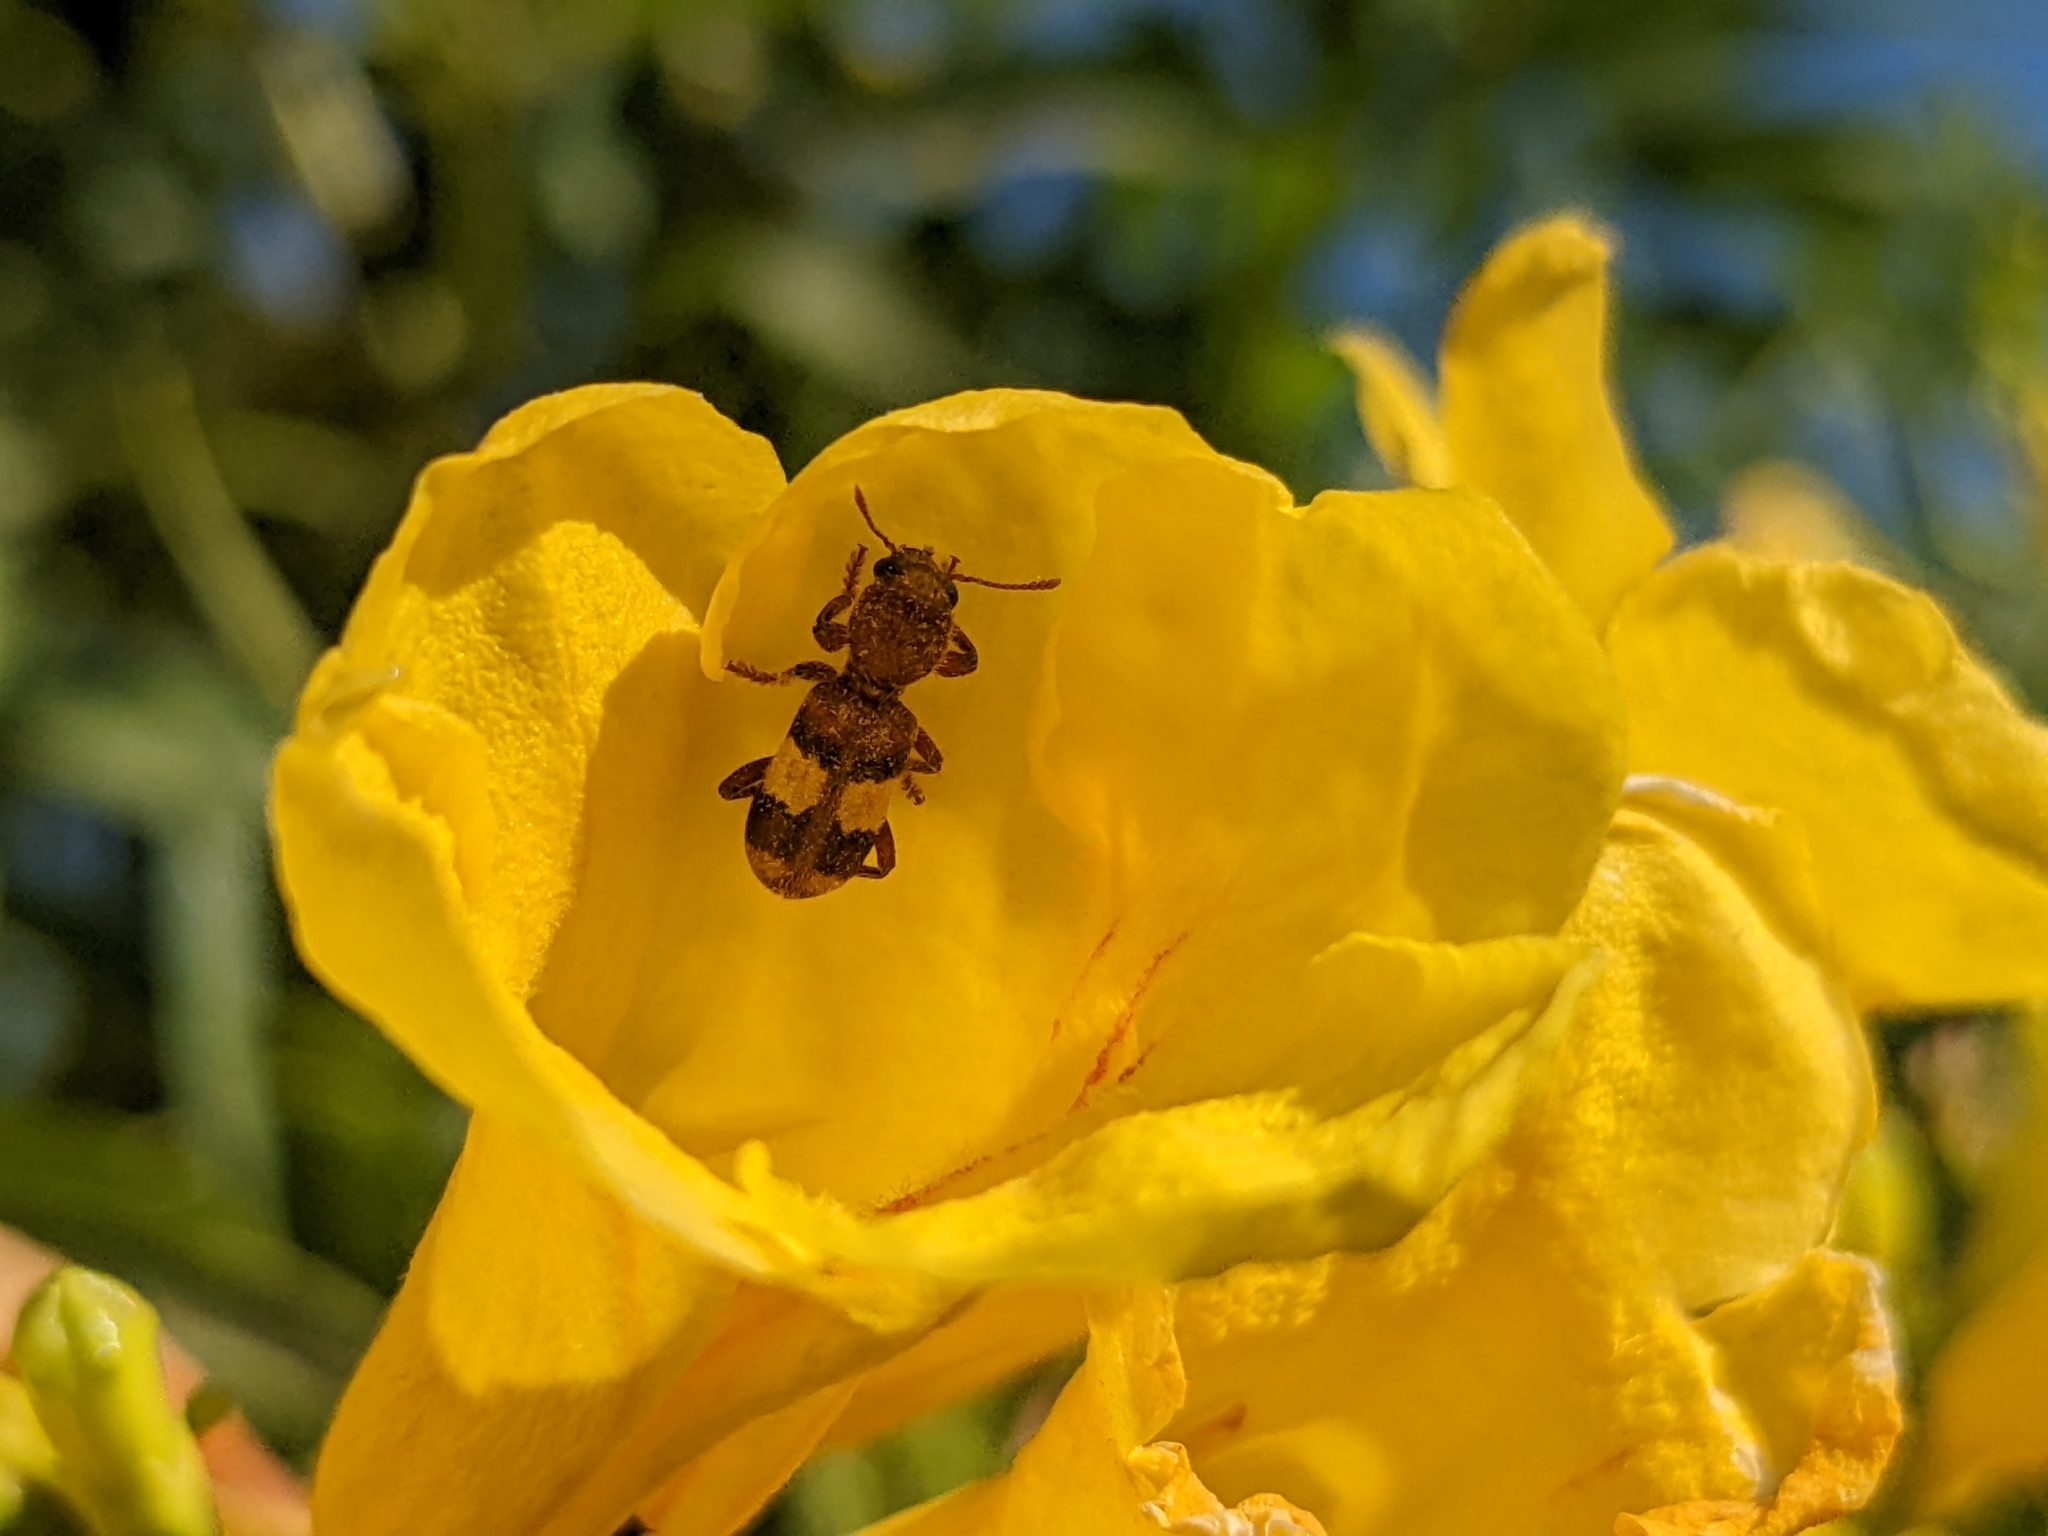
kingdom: Animalia
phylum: Arthropoda
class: Insecta
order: Coleoptera
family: Cleridae
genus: Enoclerus
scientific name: Enoclerus quadrisignatus
